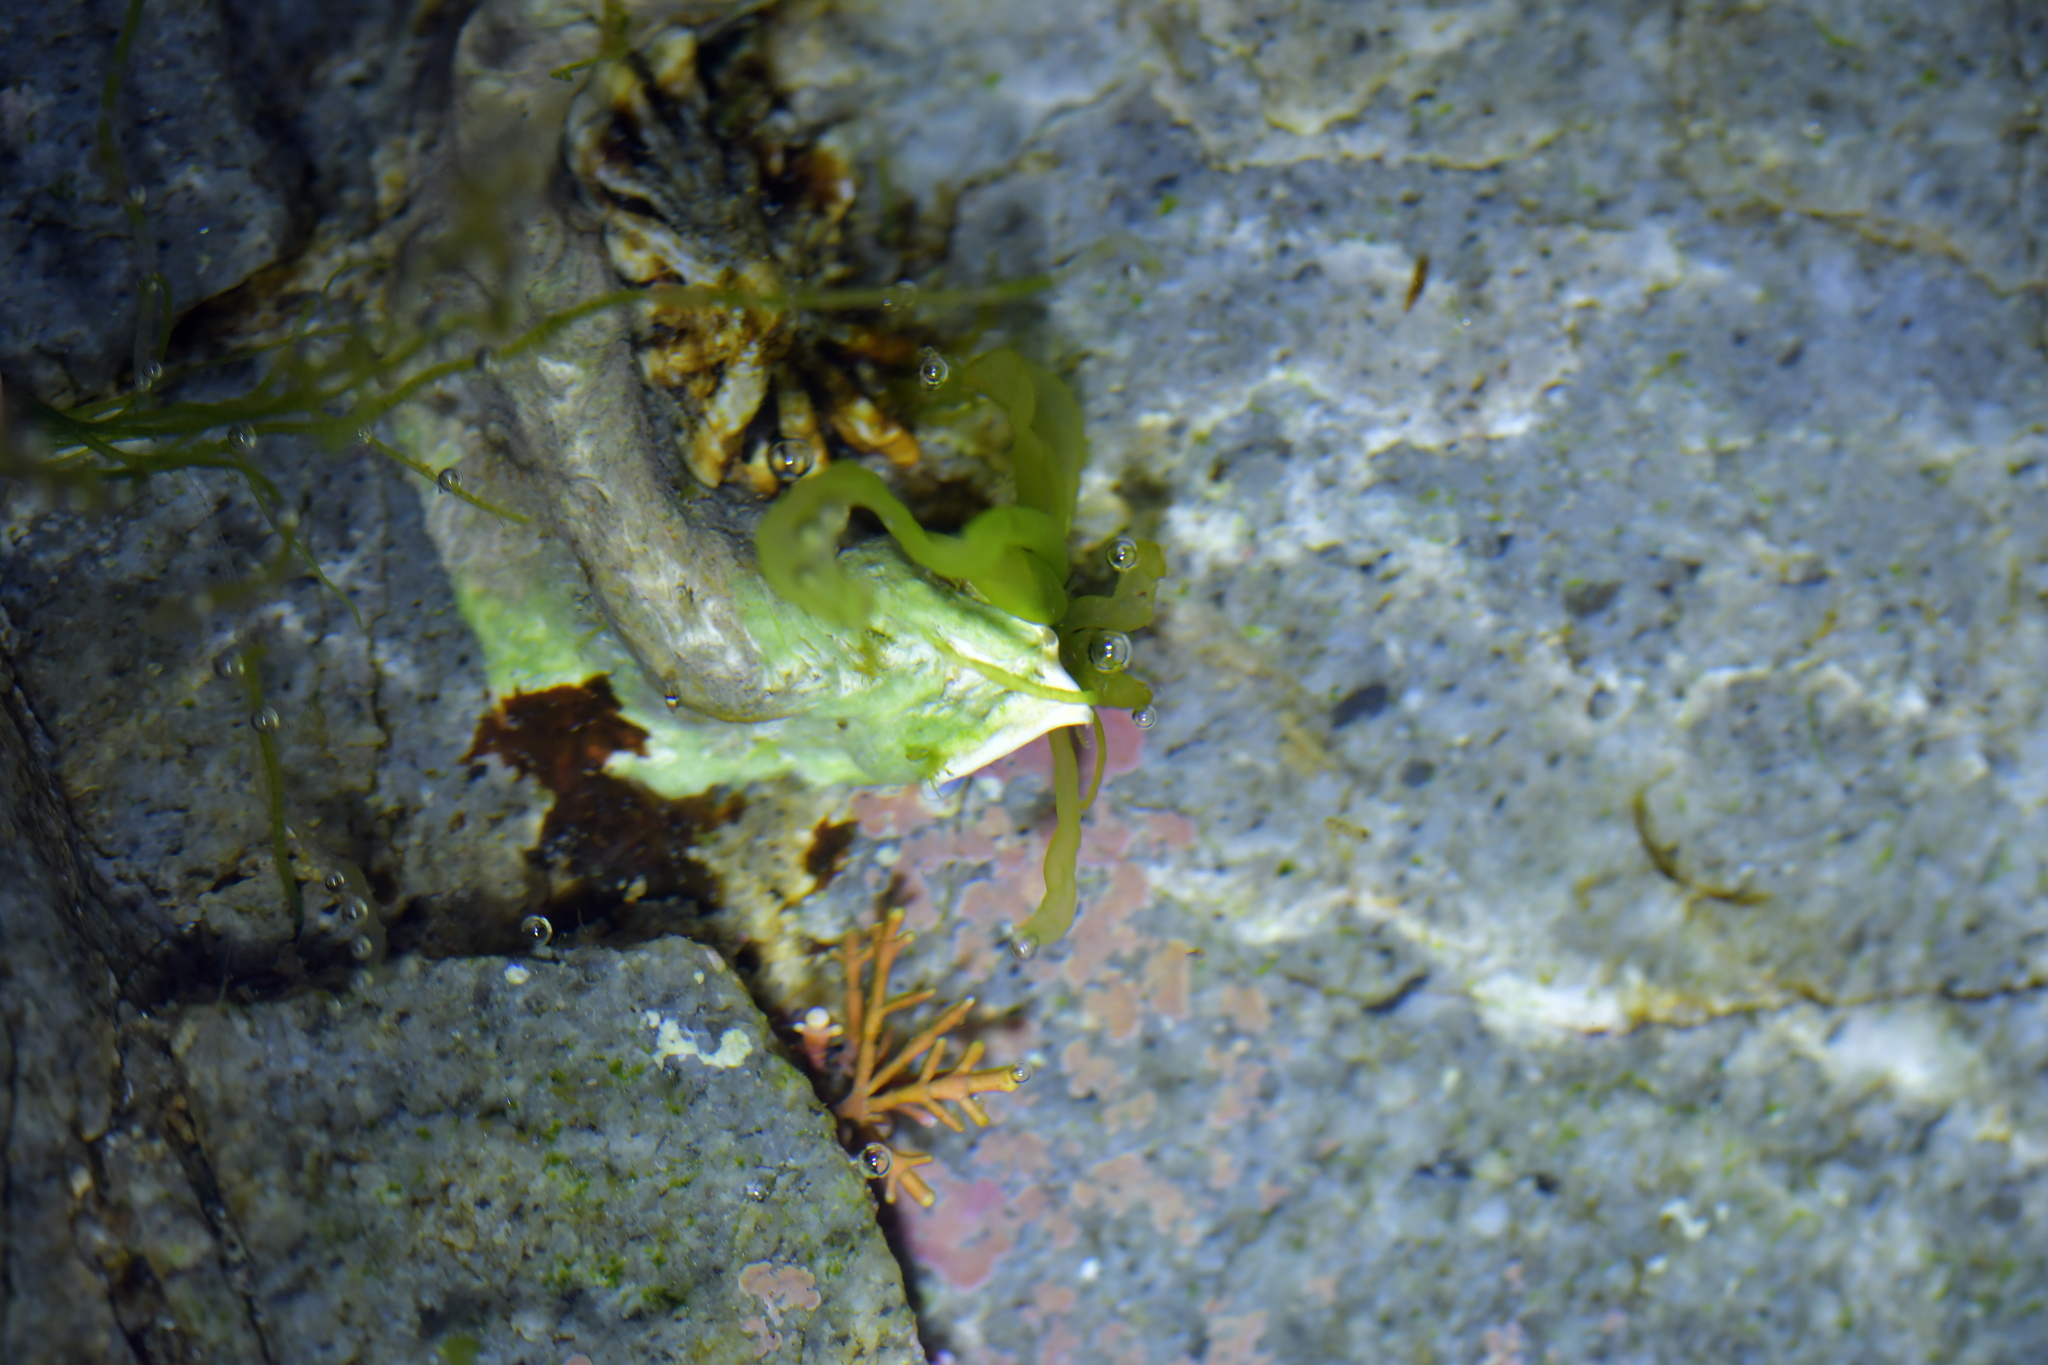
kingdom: Animalia
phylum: Annelida
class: Polychaeta
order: Sabellida
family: Serpulidae
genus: Spirobranchus
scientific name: Spirobranchus cariniferus
